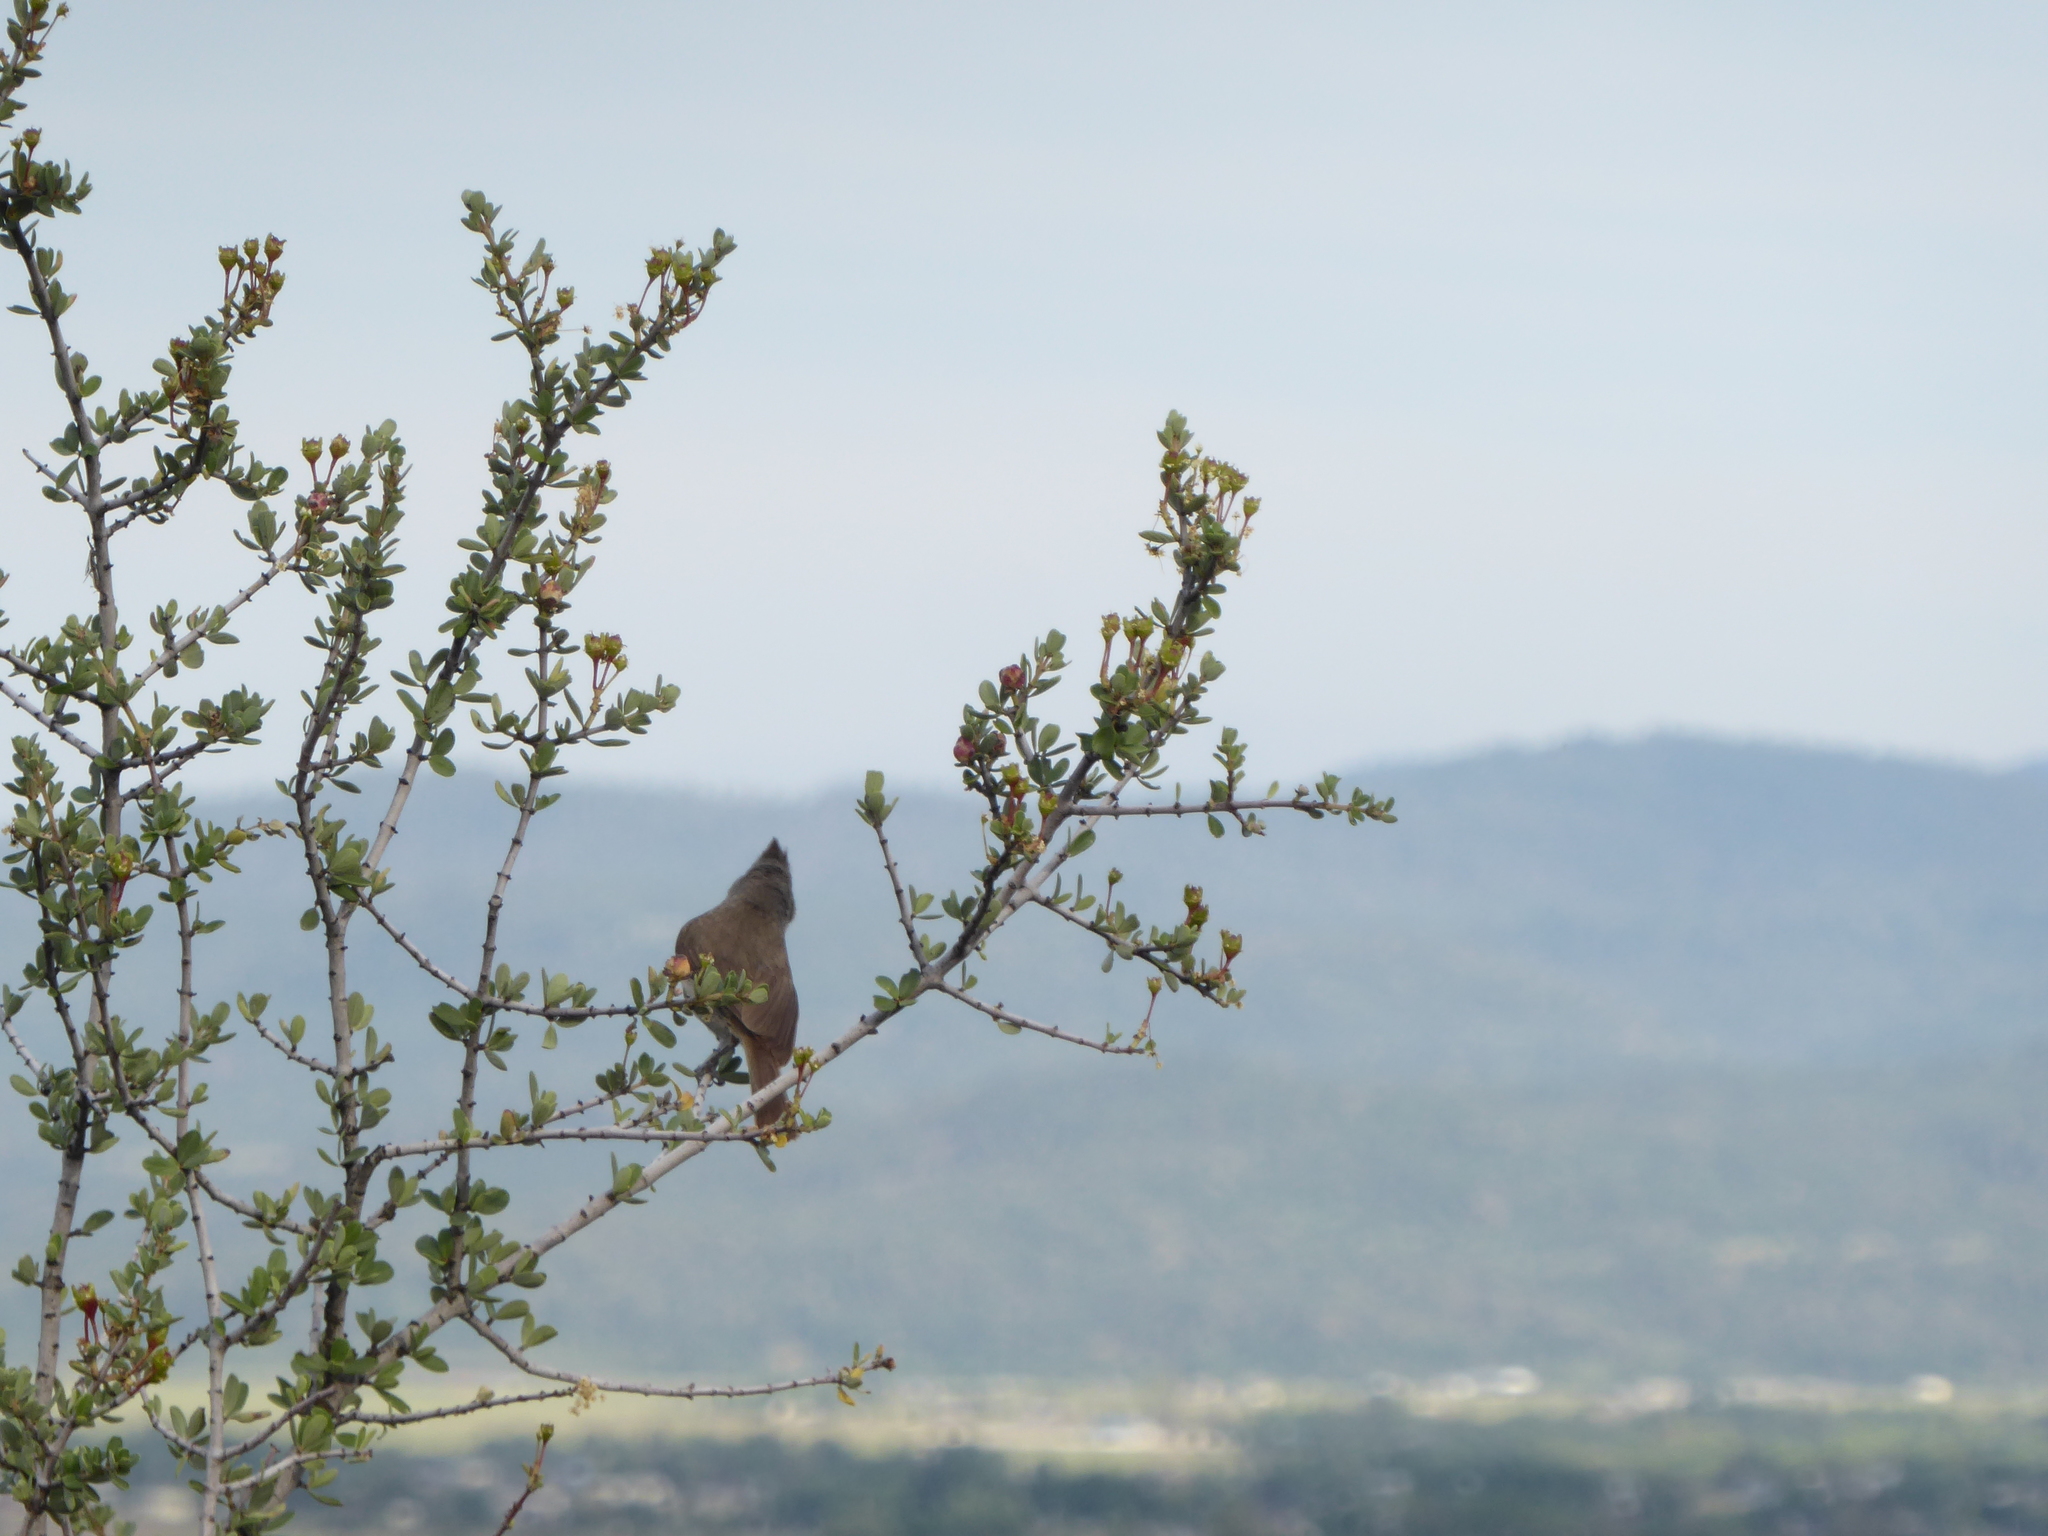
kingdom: Animalia
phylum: Chordata
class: Aves
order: Passeriformes
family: Paridae
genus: Baeolophus
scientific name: Baeolophus inornatus
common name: Oak titmouse
